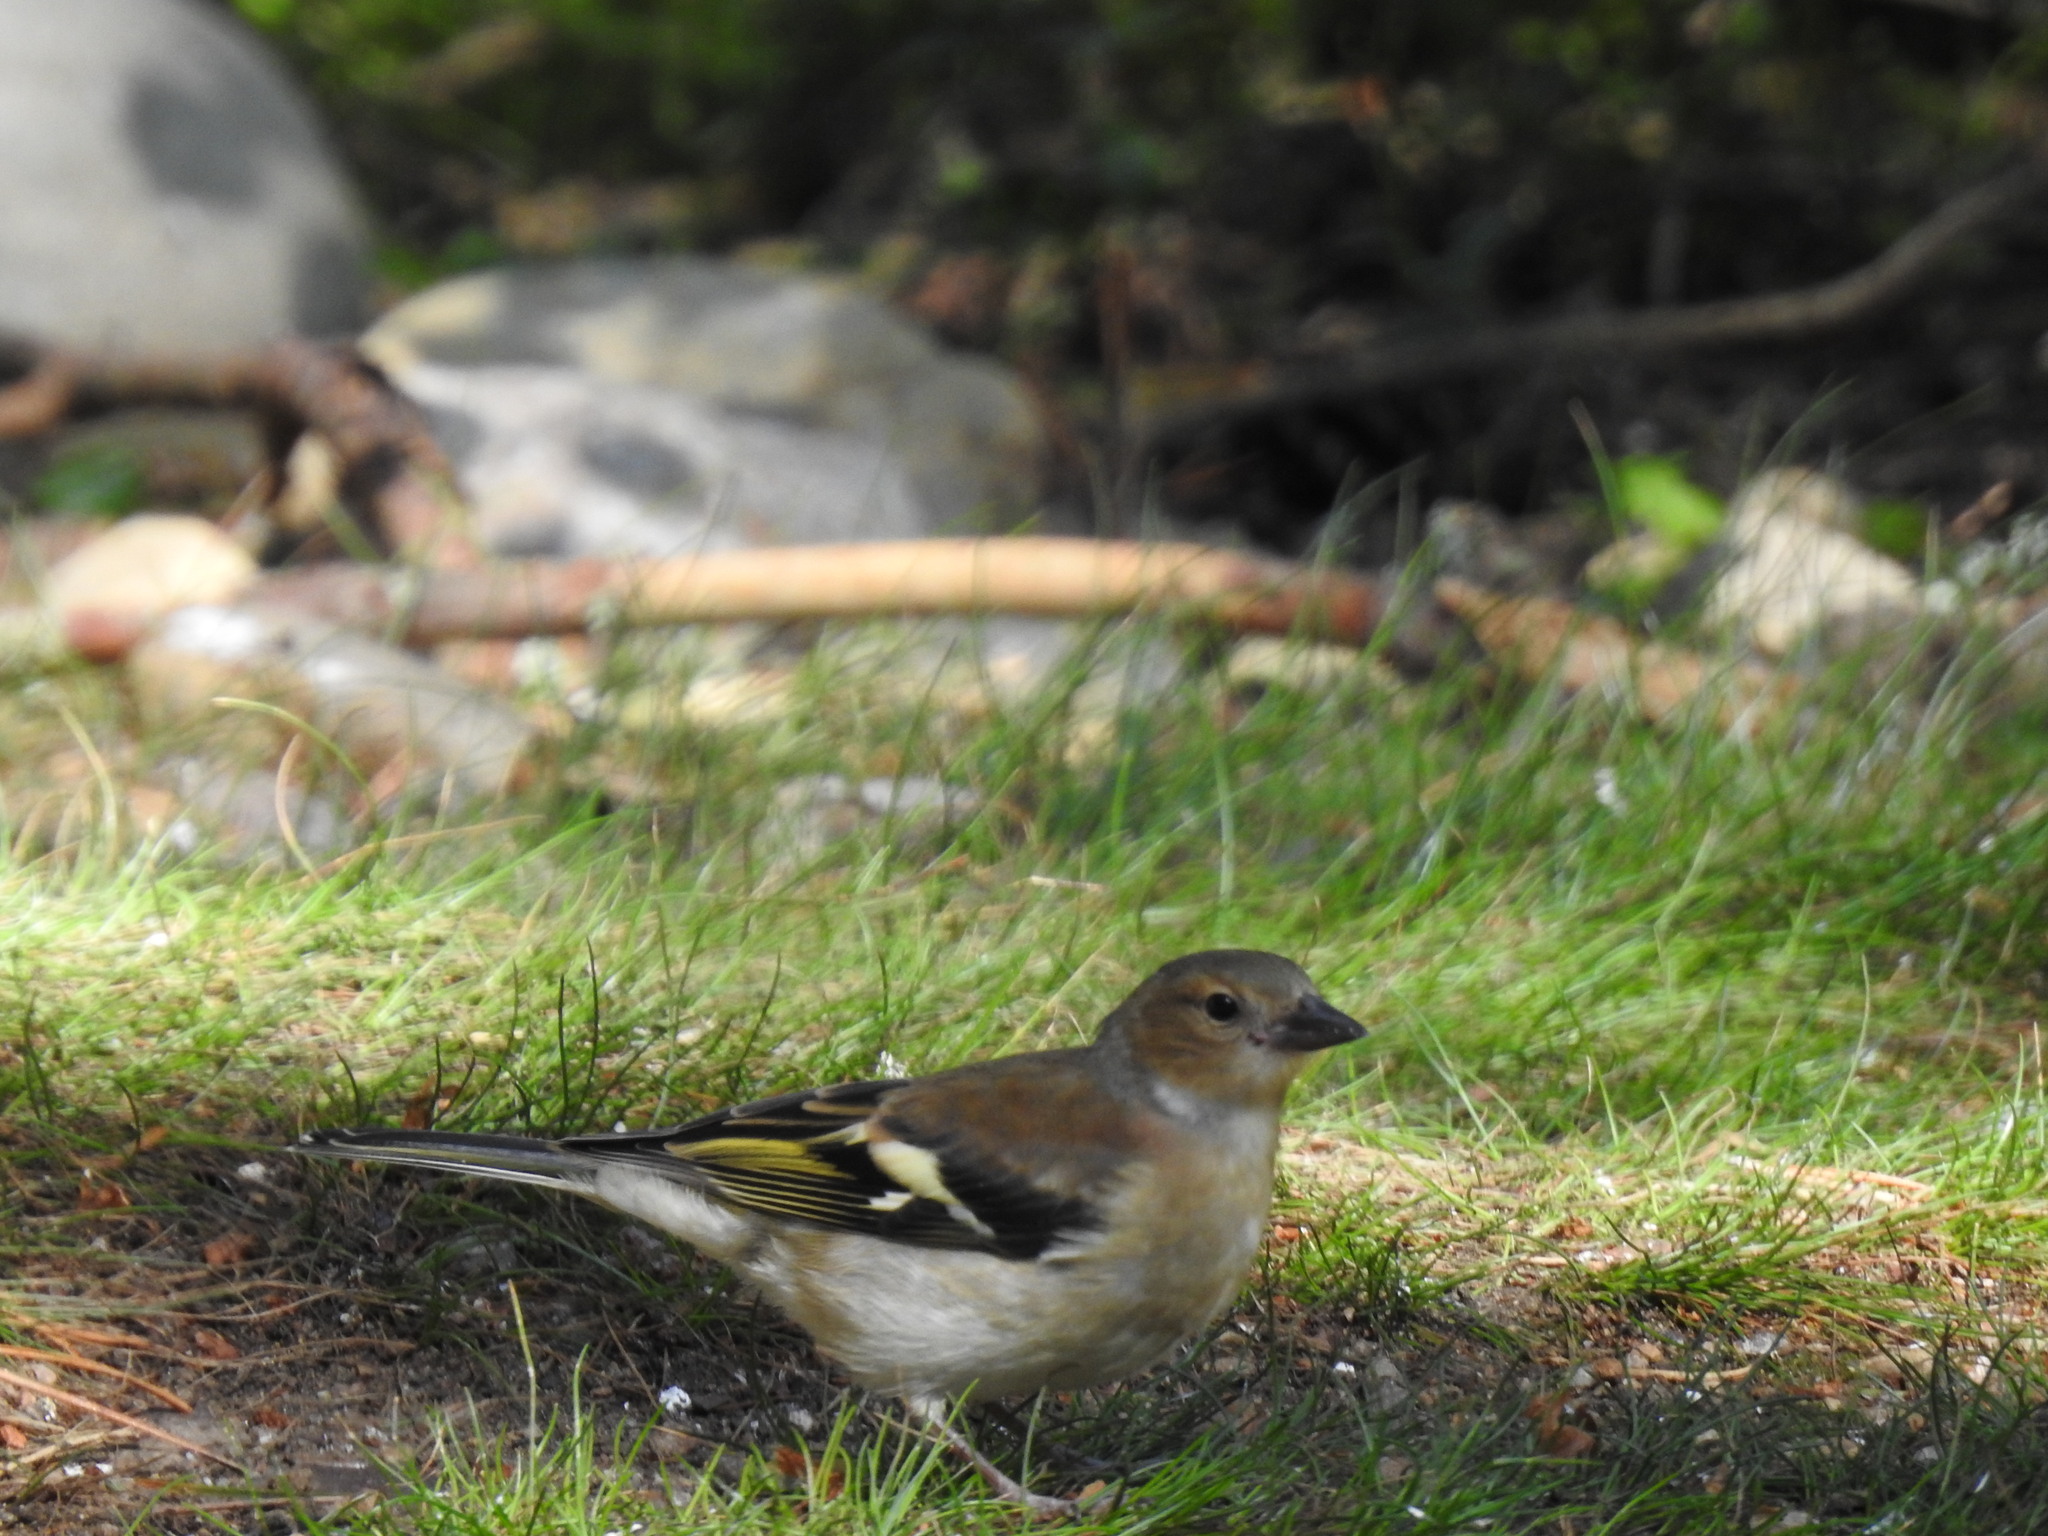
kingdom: Animalia
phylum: Chordata
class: Aves
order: Passeriformes
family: Fringillidae
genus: Fringilla
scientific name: Fringilla coelebs
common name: Common chaffinch
